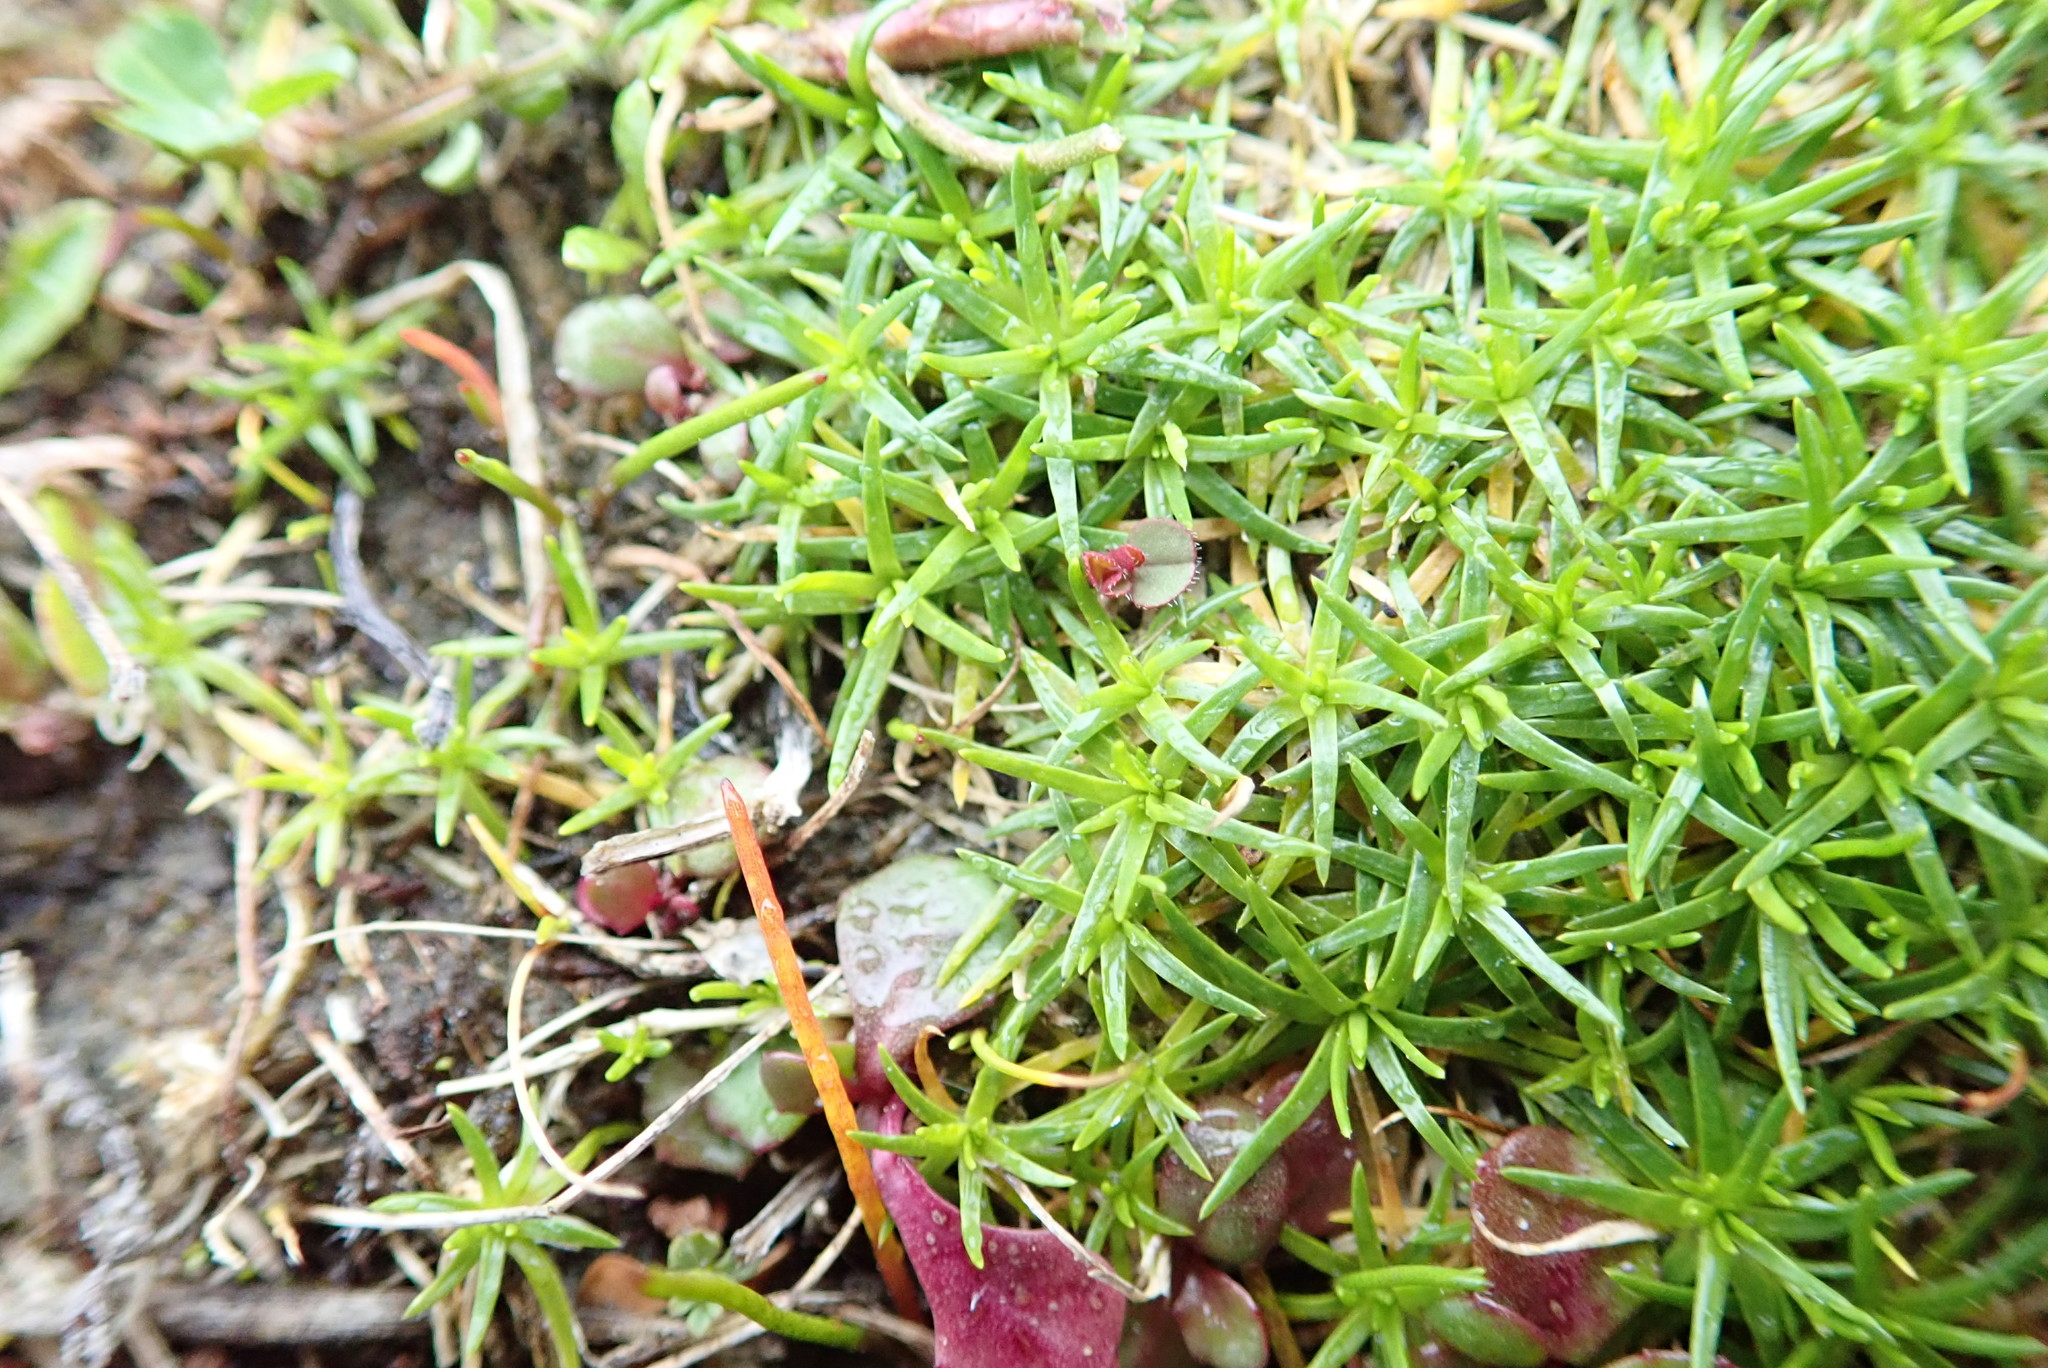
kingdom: Plantae
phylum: Tracheophyta
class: Magnoliopsida
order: Caryophyllales
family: Caryophyllaceae
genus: Sagina
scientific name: Sagina procumbens
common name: Procumbent pearlwort
